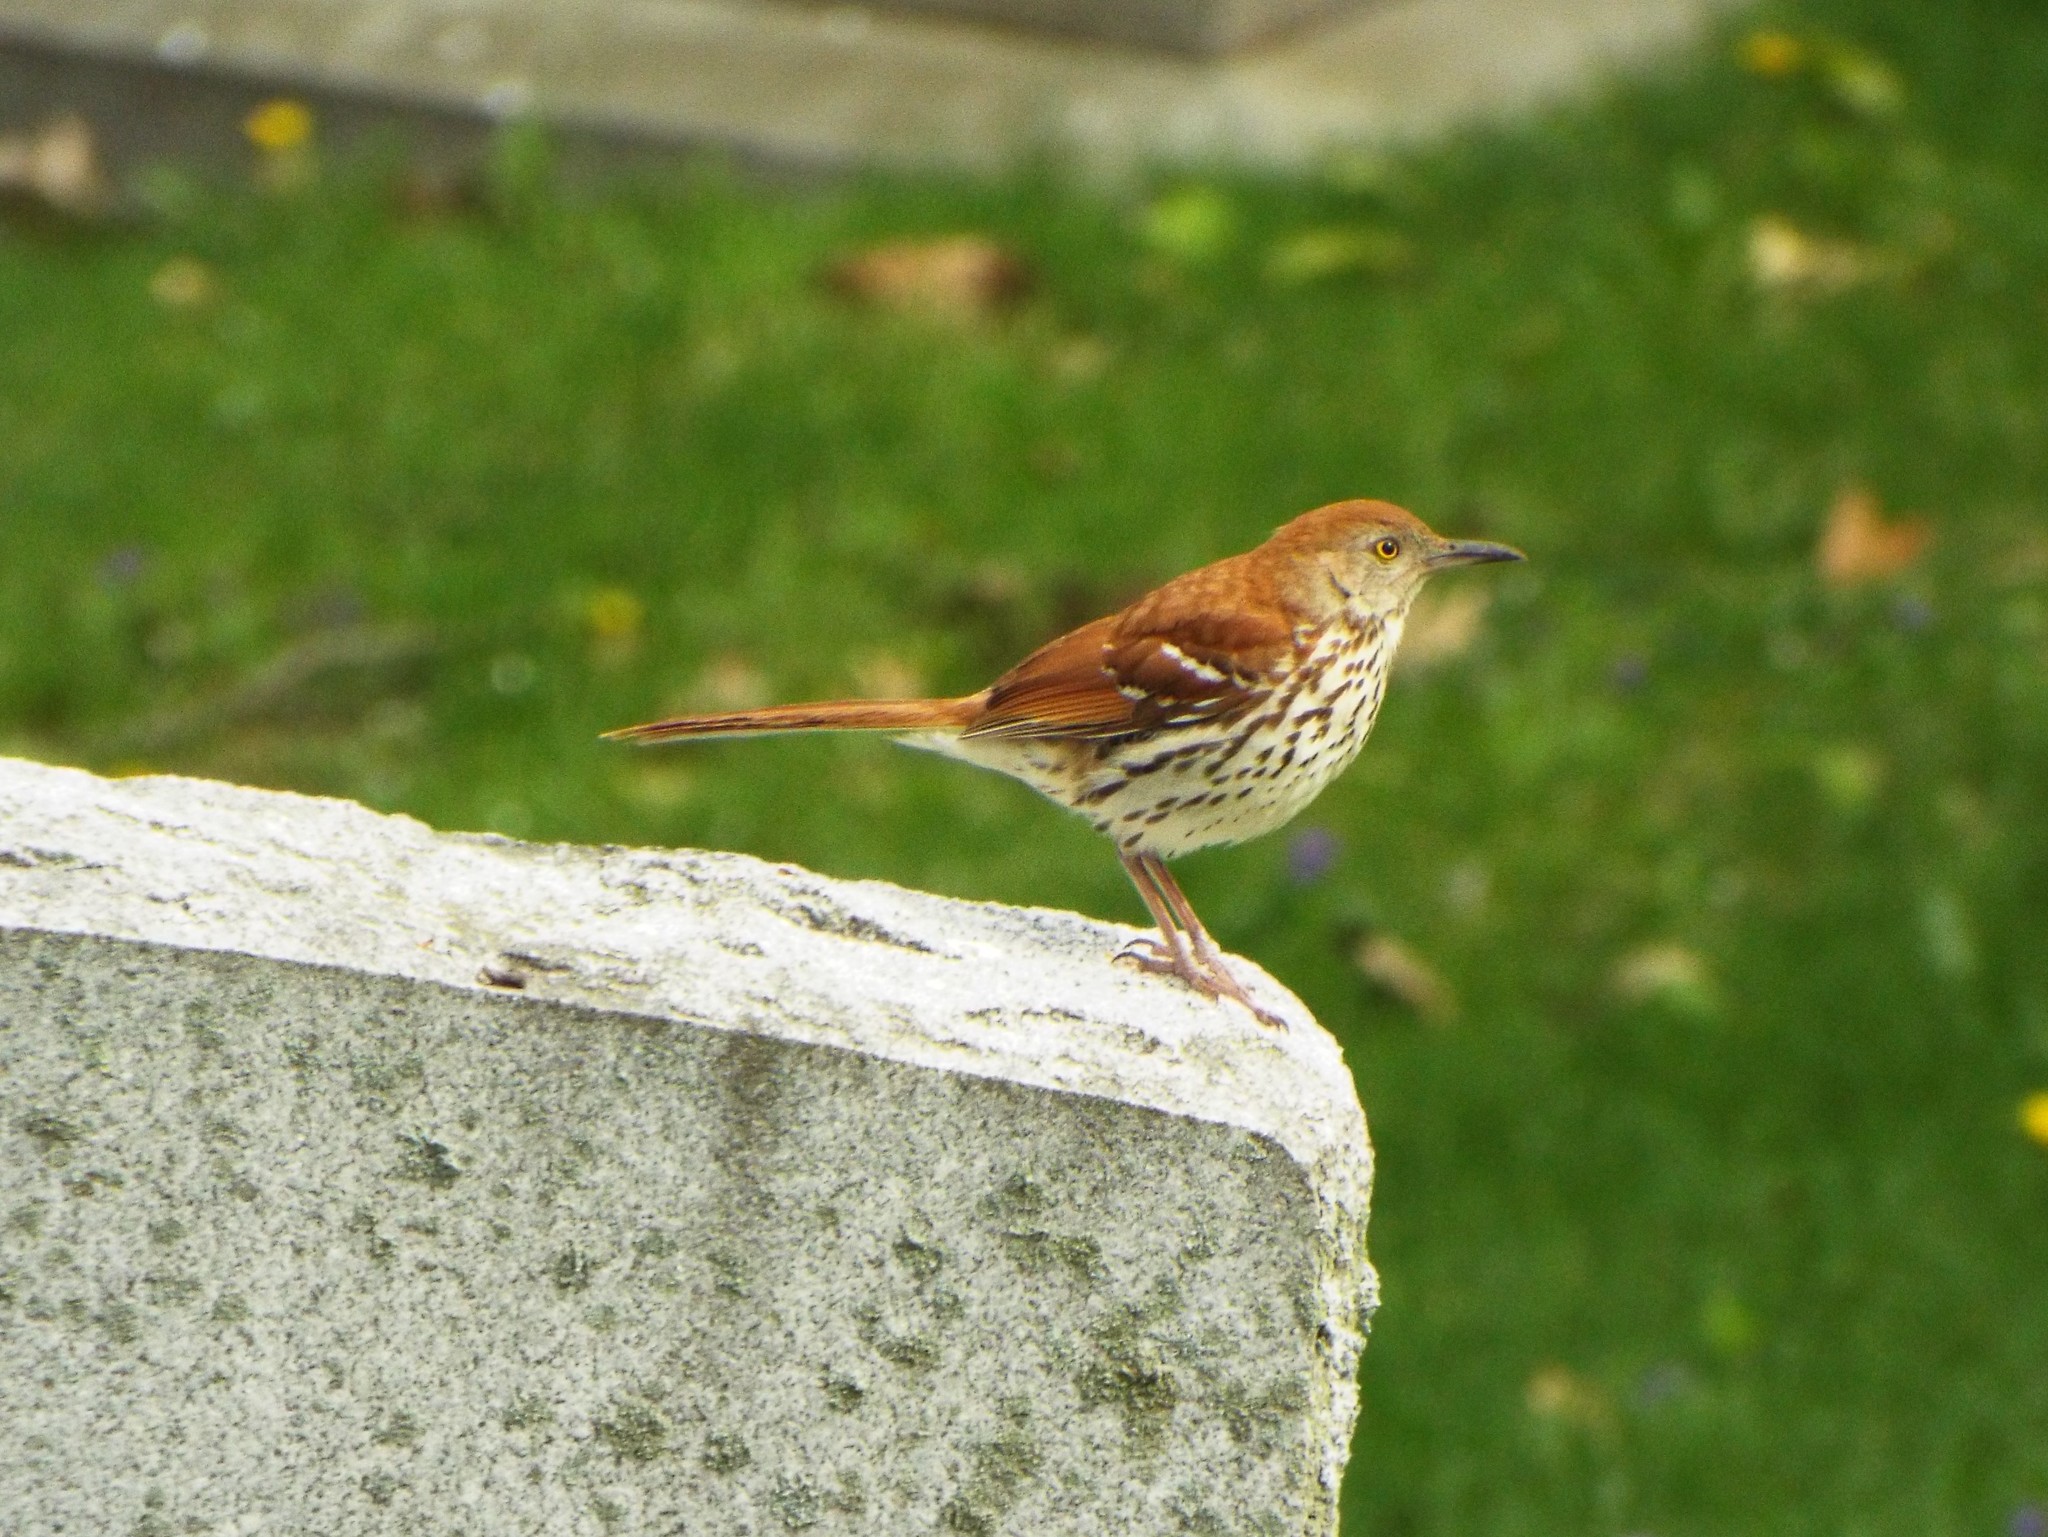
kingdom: Animalia
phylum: Chordata
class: Aves
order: Passeriformes
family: Mimidae
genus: Toxostoma
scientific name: Toxostoma rufum
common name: Brown thrasher
